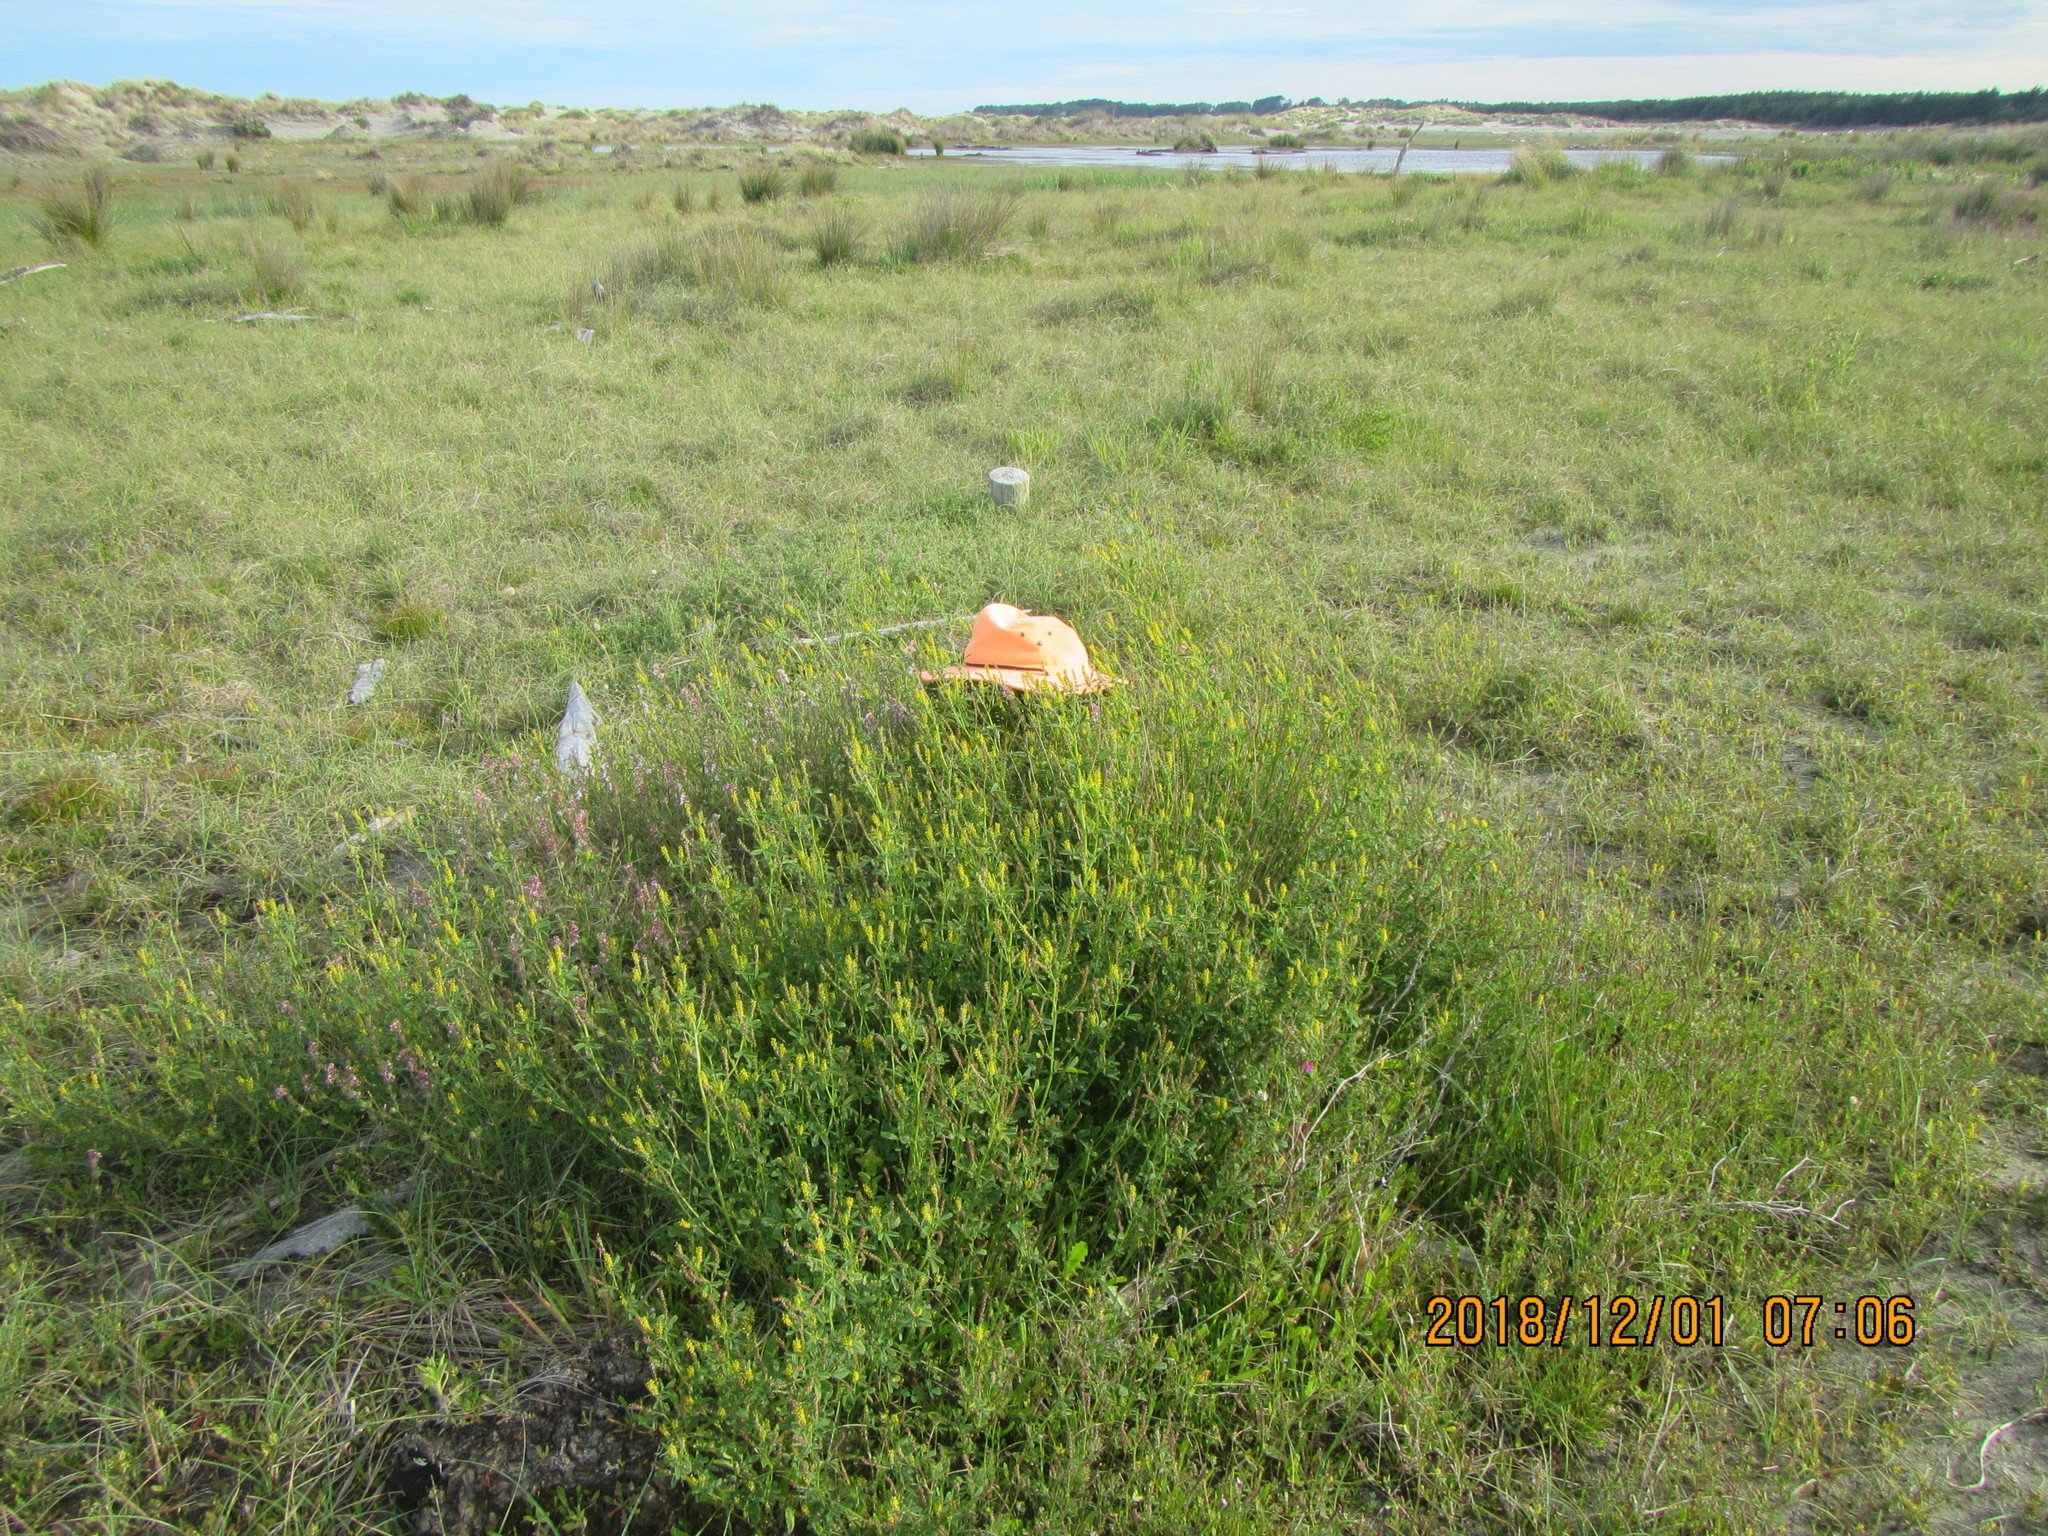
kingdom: Plantae
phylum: Tracheophyta
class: Magnoliopsida
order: Fabales
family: Fabaceae
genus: Melilotus
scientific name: Melilotus indicus
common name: Small melilot
